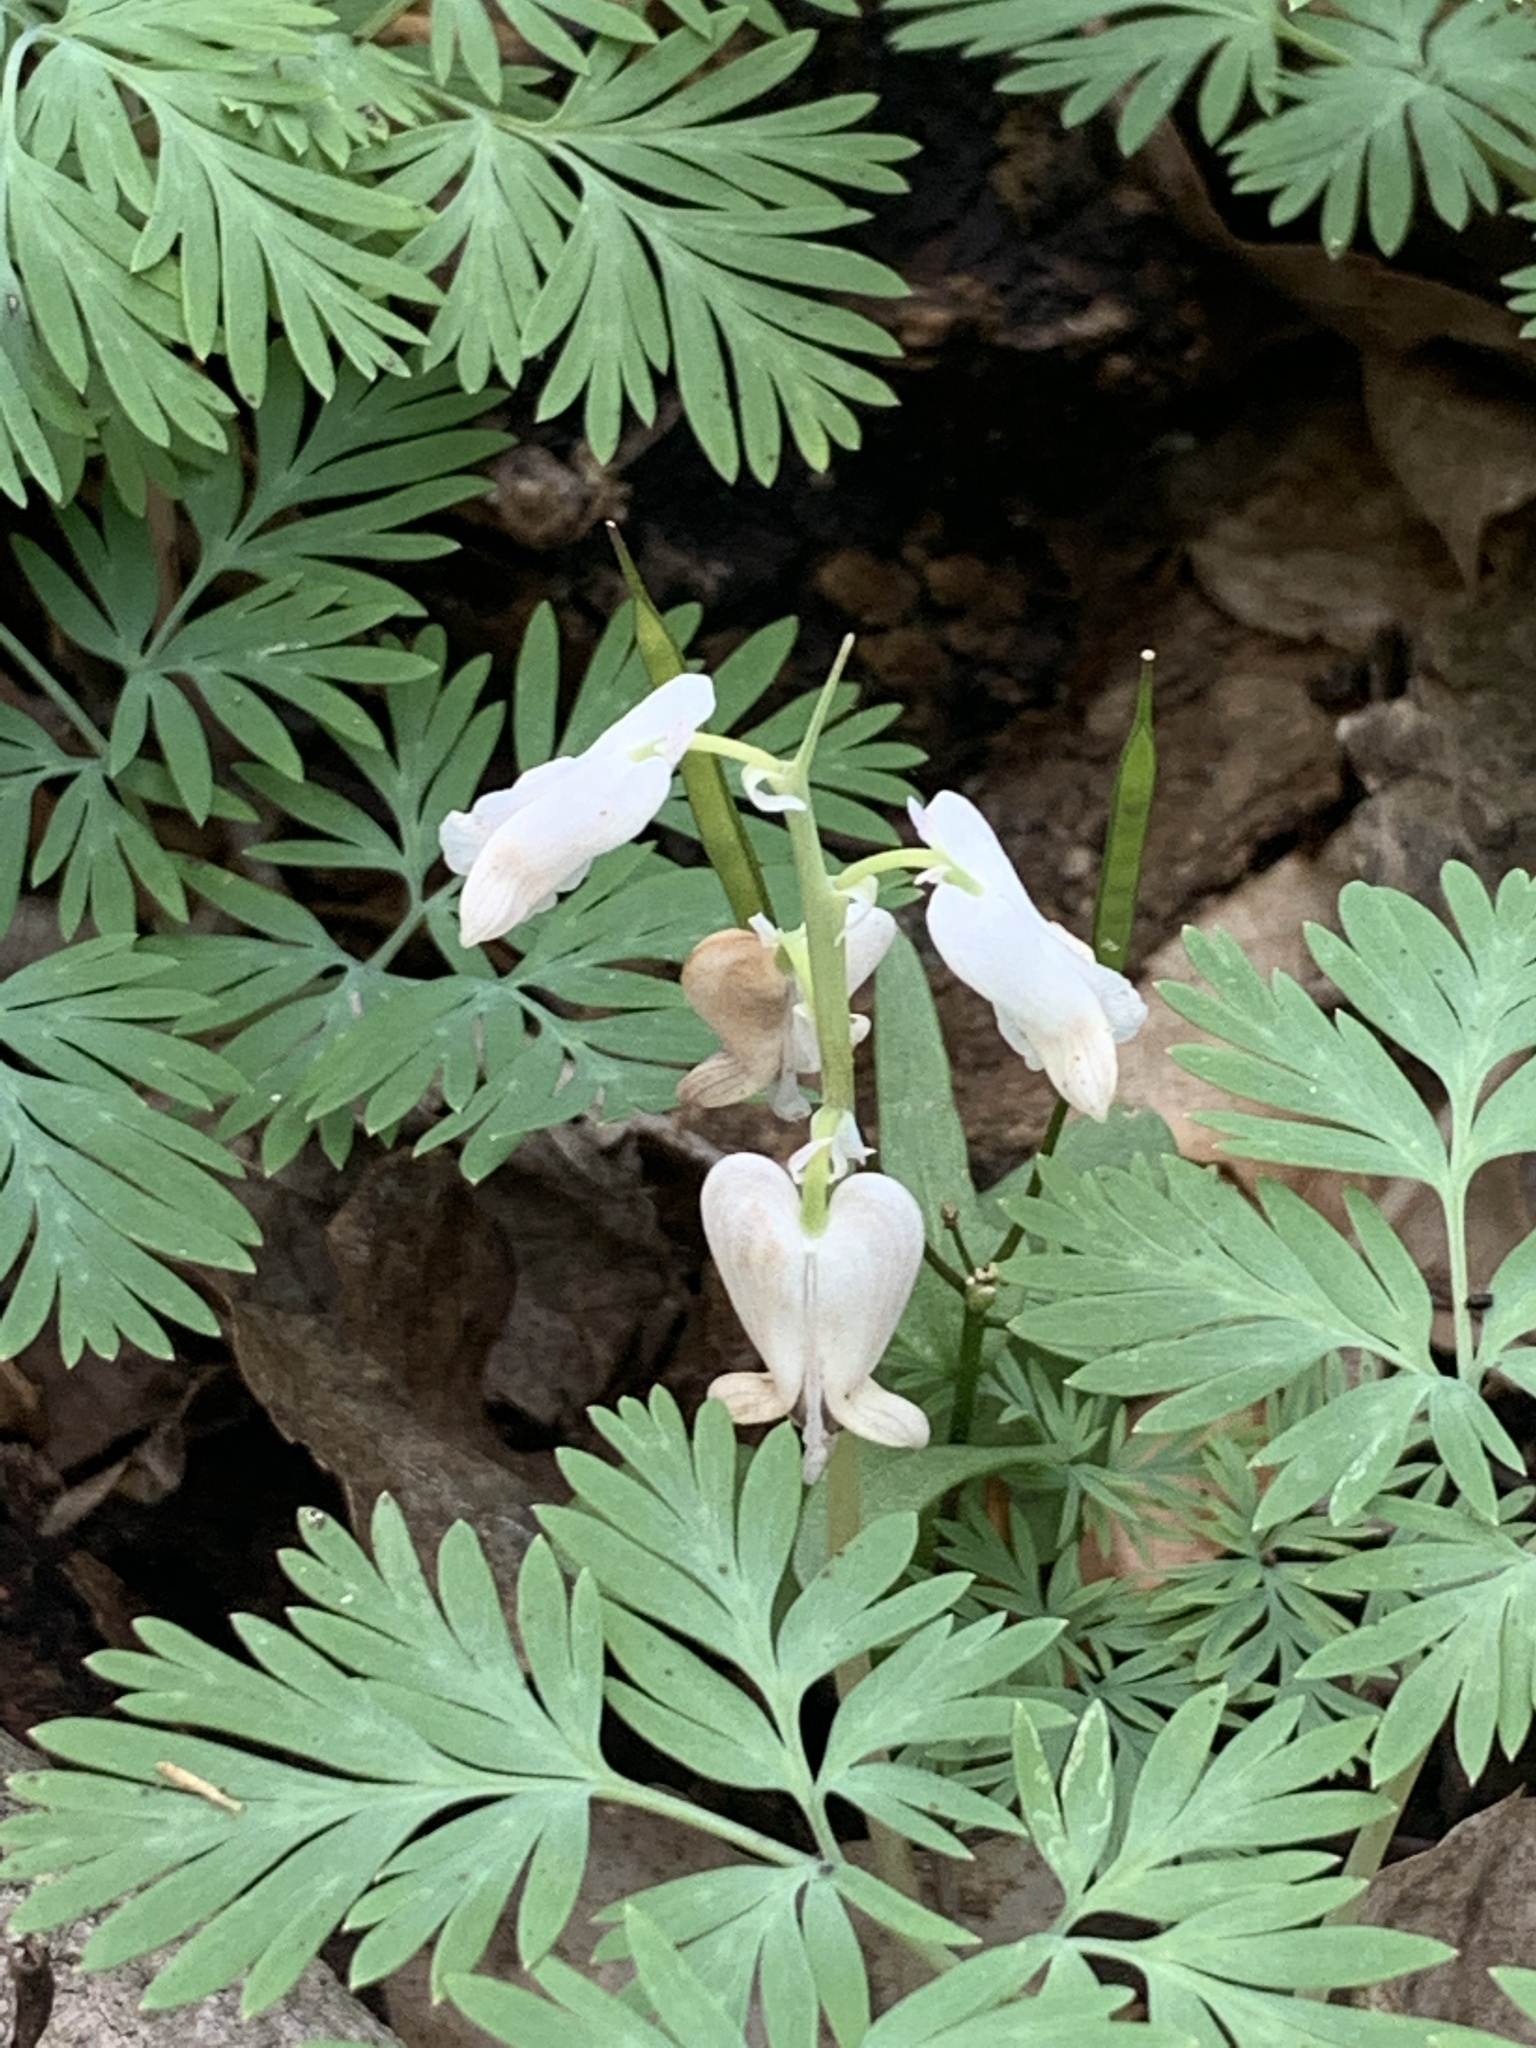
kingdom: Plantae
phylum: Tracheophyta
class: Magnoliopsida
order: Ranunculales
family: Papaveraceae
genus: Dicentra
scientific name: Dicentra canadensis
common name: Squirrel-corn
